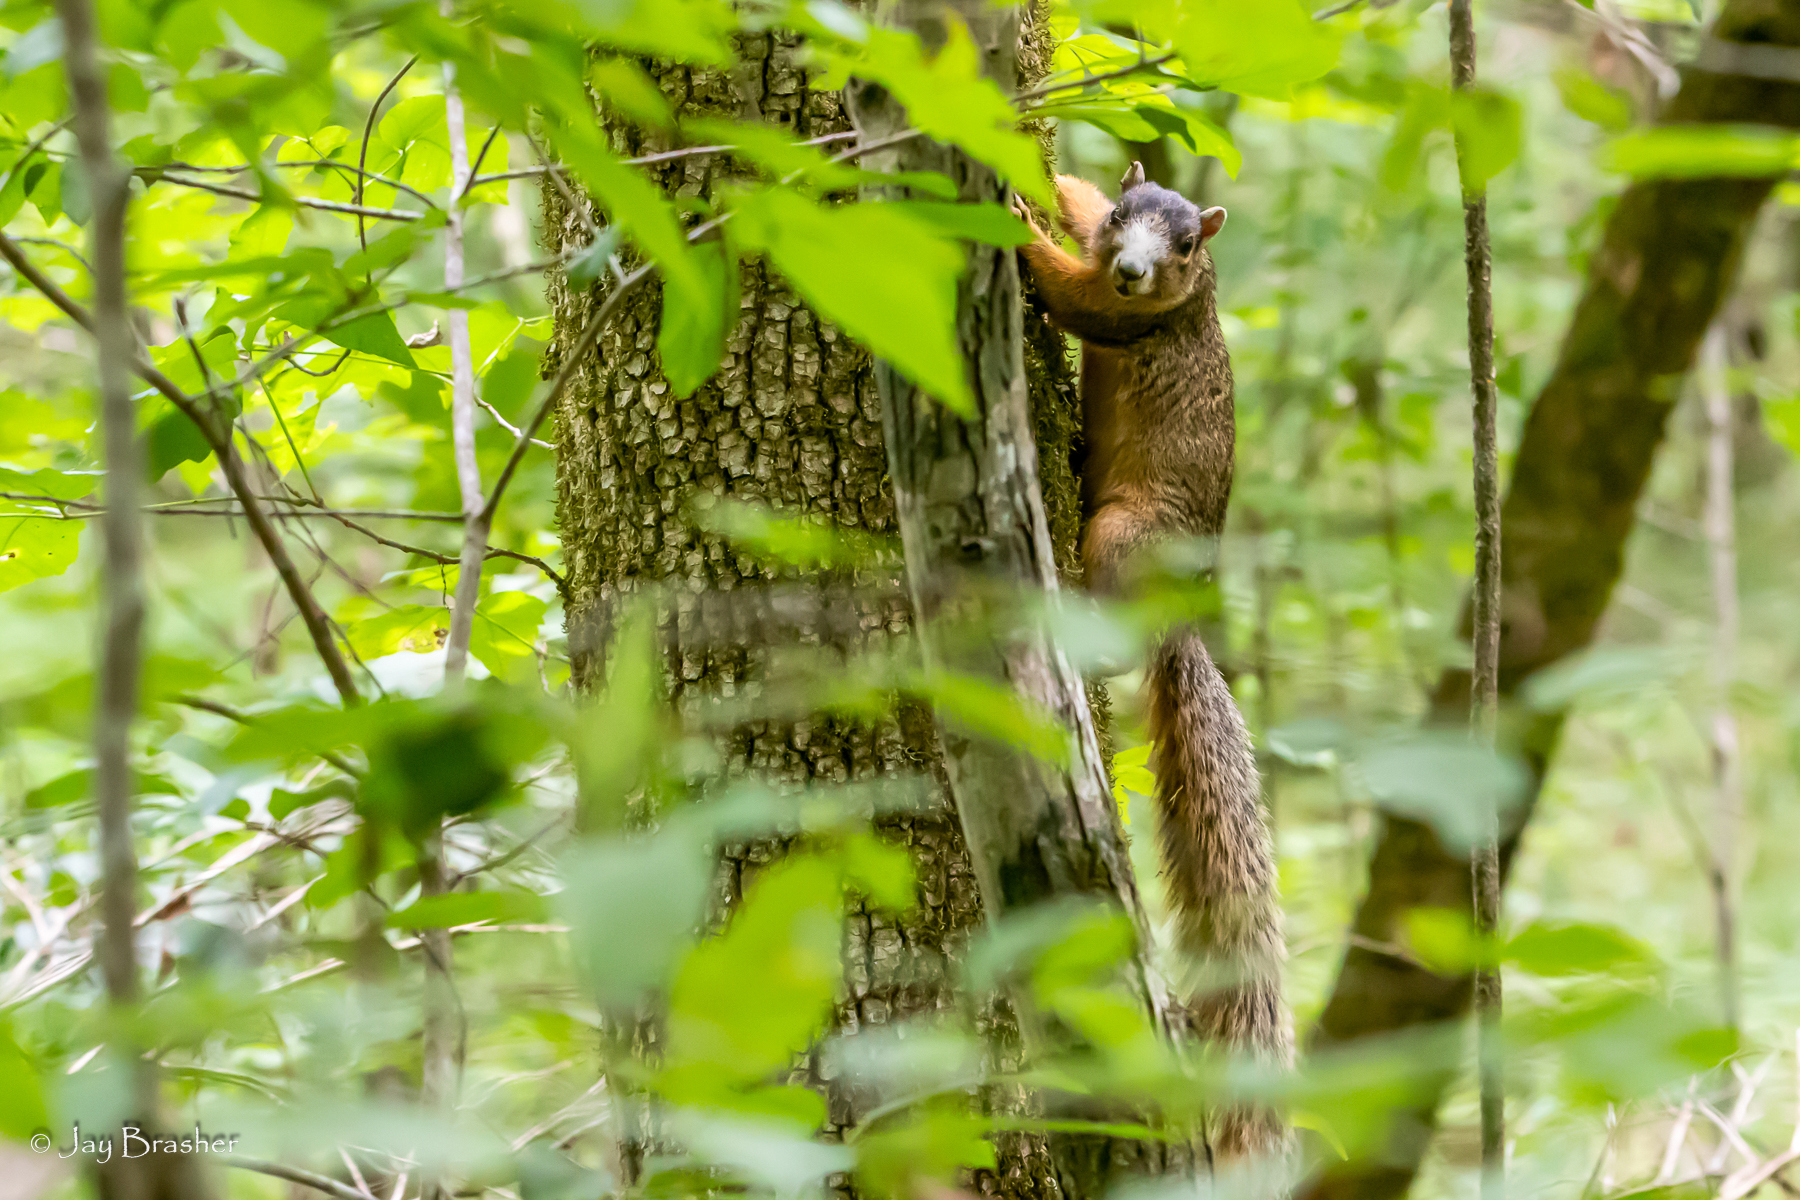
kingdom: Animalia
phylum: Chordata
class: Mammalia
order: Rodentia
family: Sciuridae
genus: Sciurus
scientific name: Sciurus niger
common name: Fox squirrel
